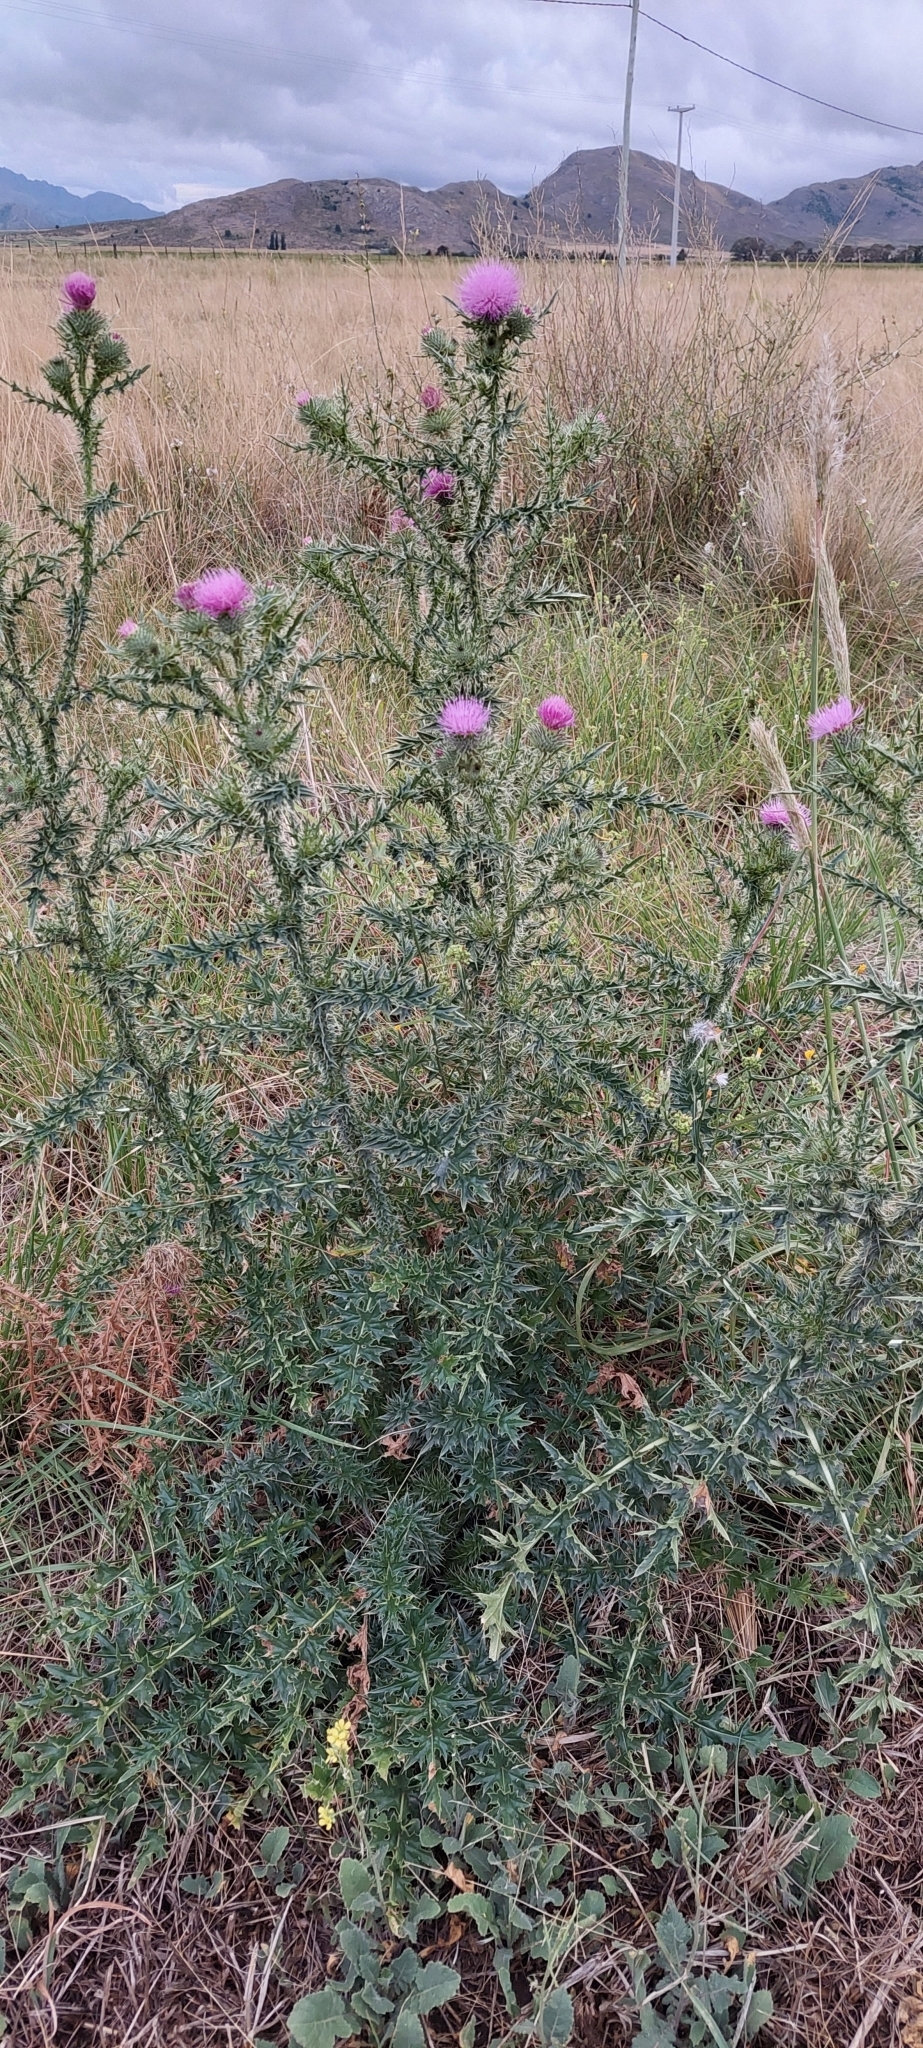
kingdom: Plantae
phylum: Tracheophyta
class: Magnoliopsida
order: Asterales
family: Asteraceae
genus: Carduus
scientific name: Carduus acanthoides
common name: Plumeless thistle
